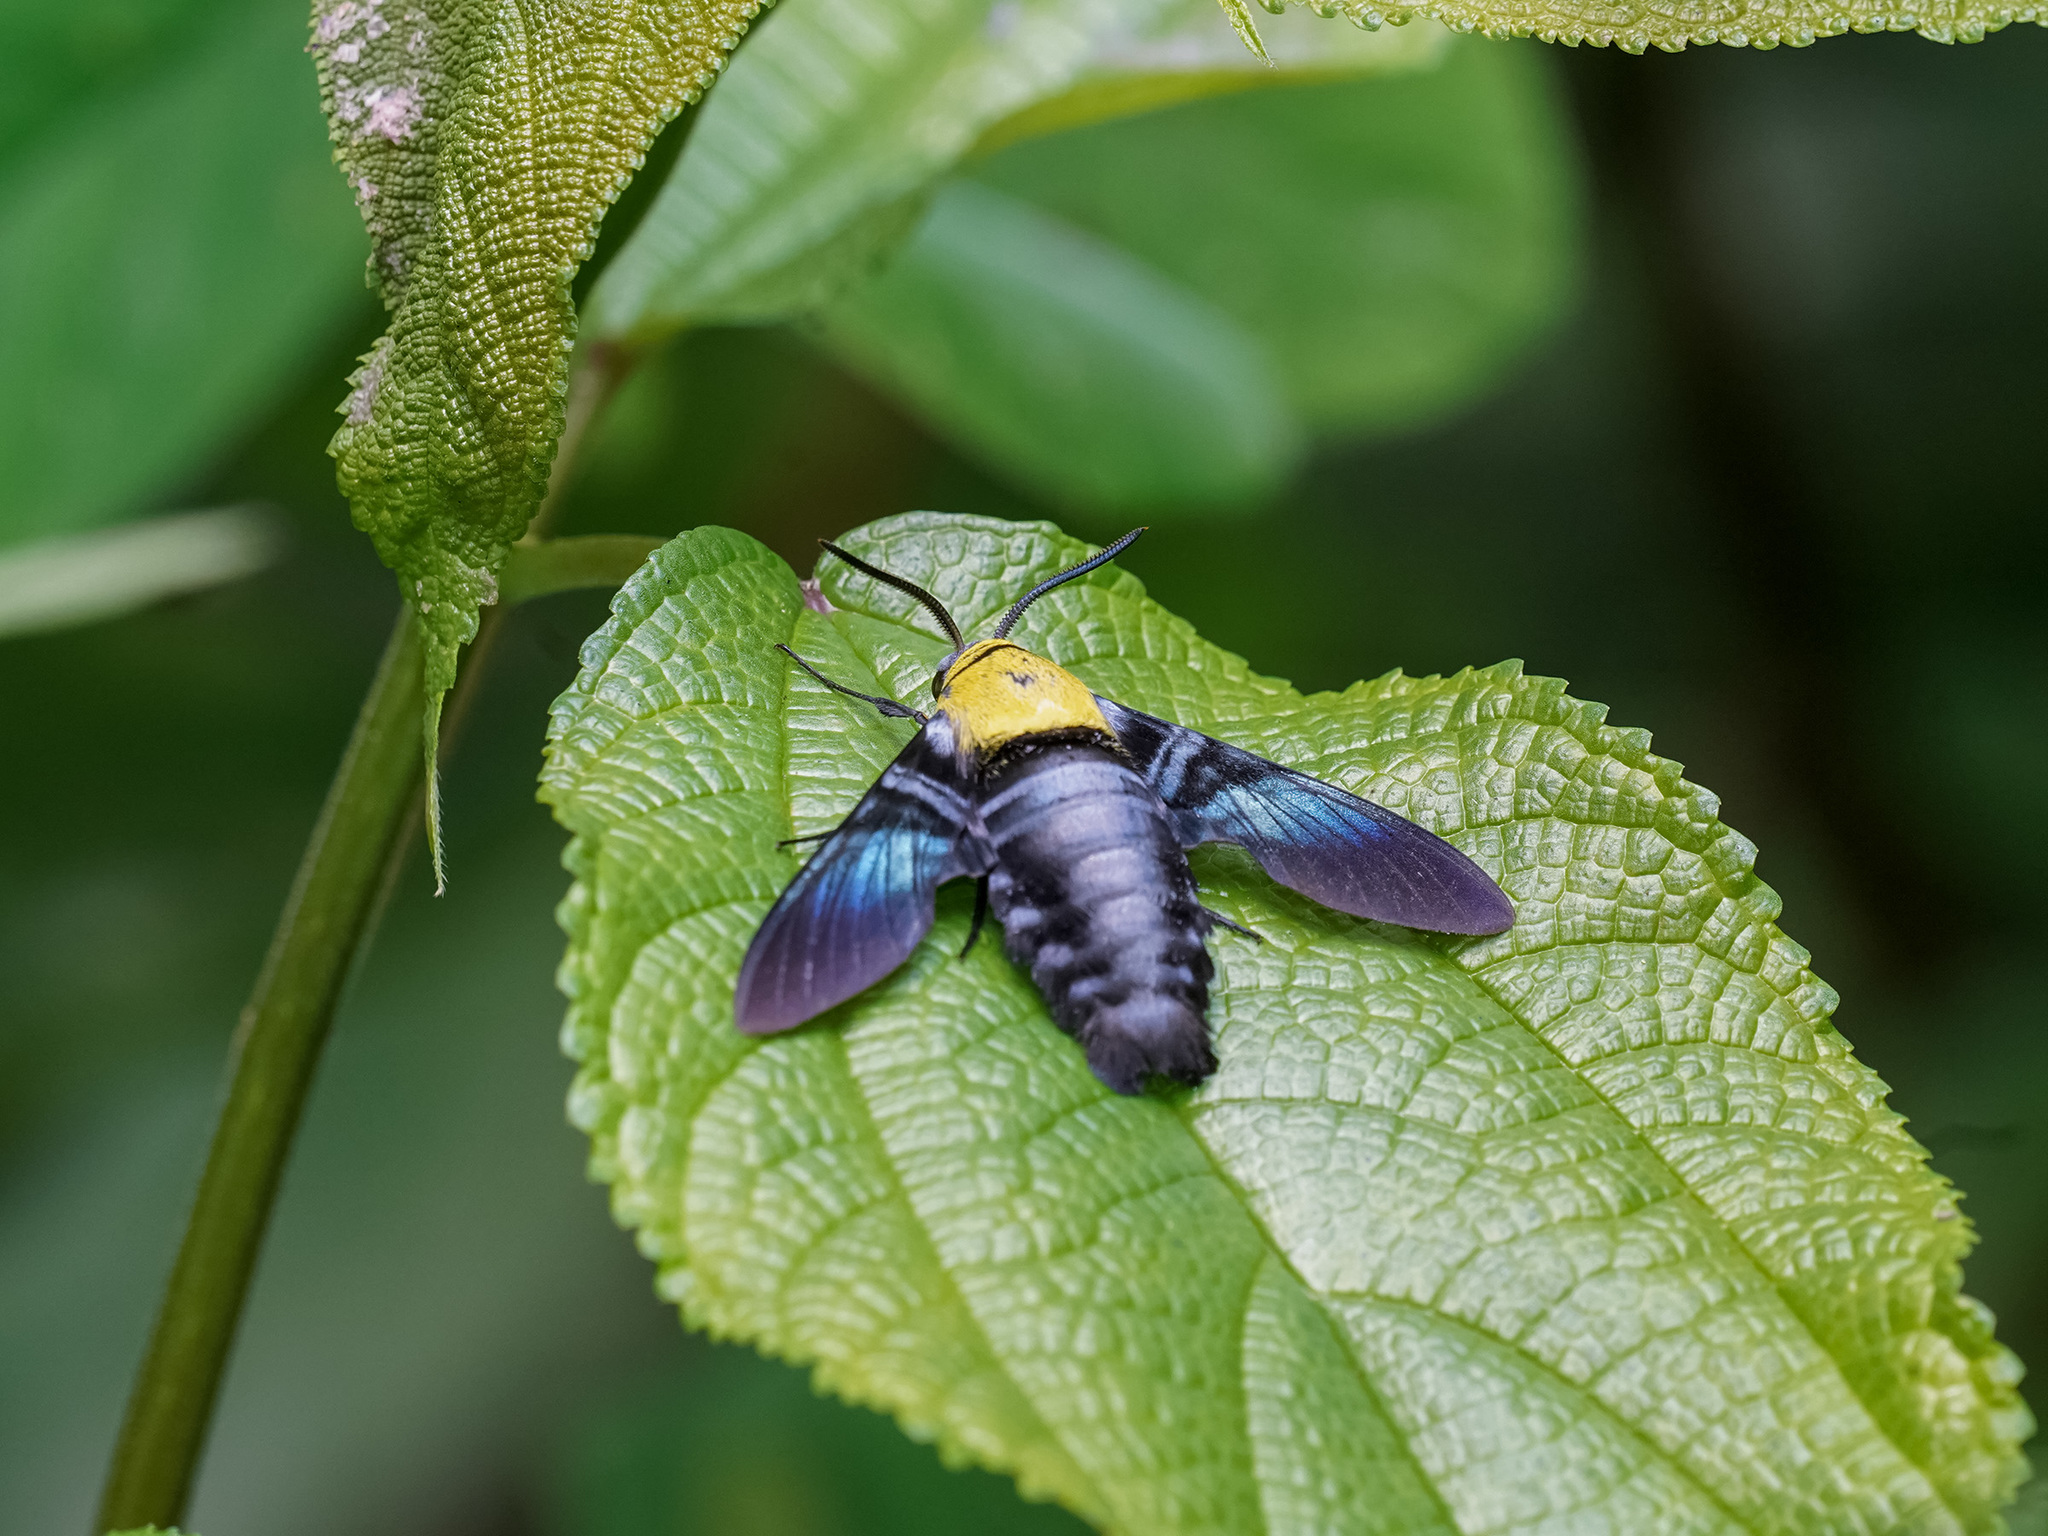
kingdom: Animalia
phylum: Arthropoda
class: Insecta
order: Lepidoptera
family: Sphingidae
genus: Sataspes
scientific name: Sataspes tagalica
